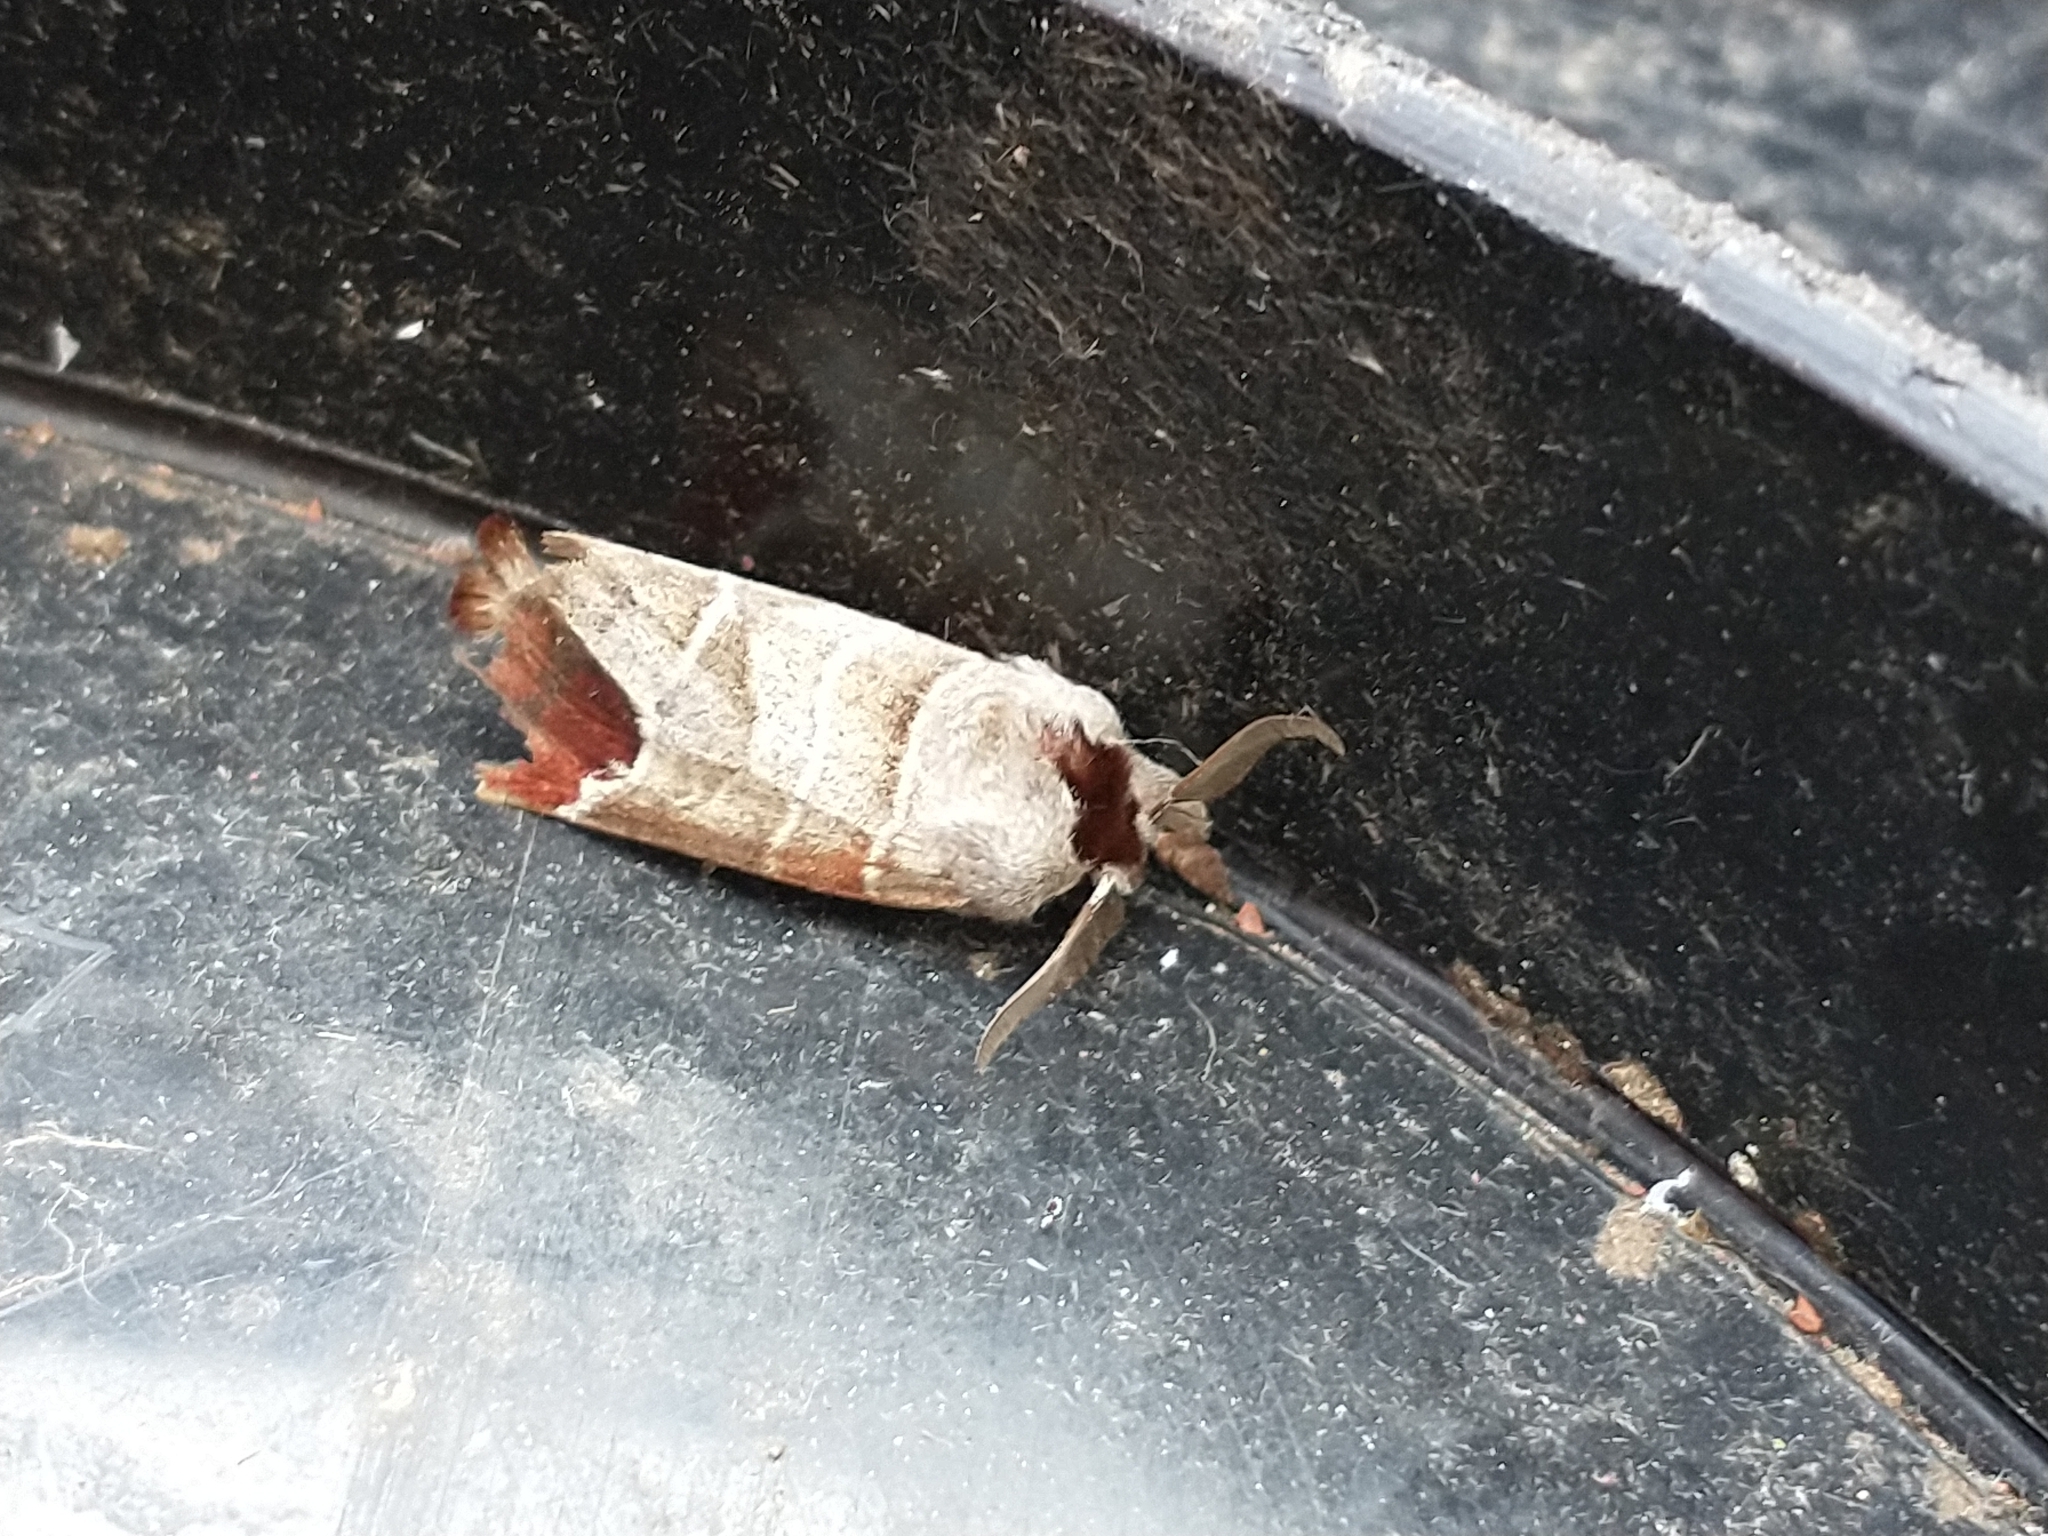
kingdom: Animalia
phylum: Arthropoda
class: Insecta
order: Lepidoptera
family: Notodontidae
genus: Clostera
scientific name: Clostera curtula
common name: Chocolate-tip
